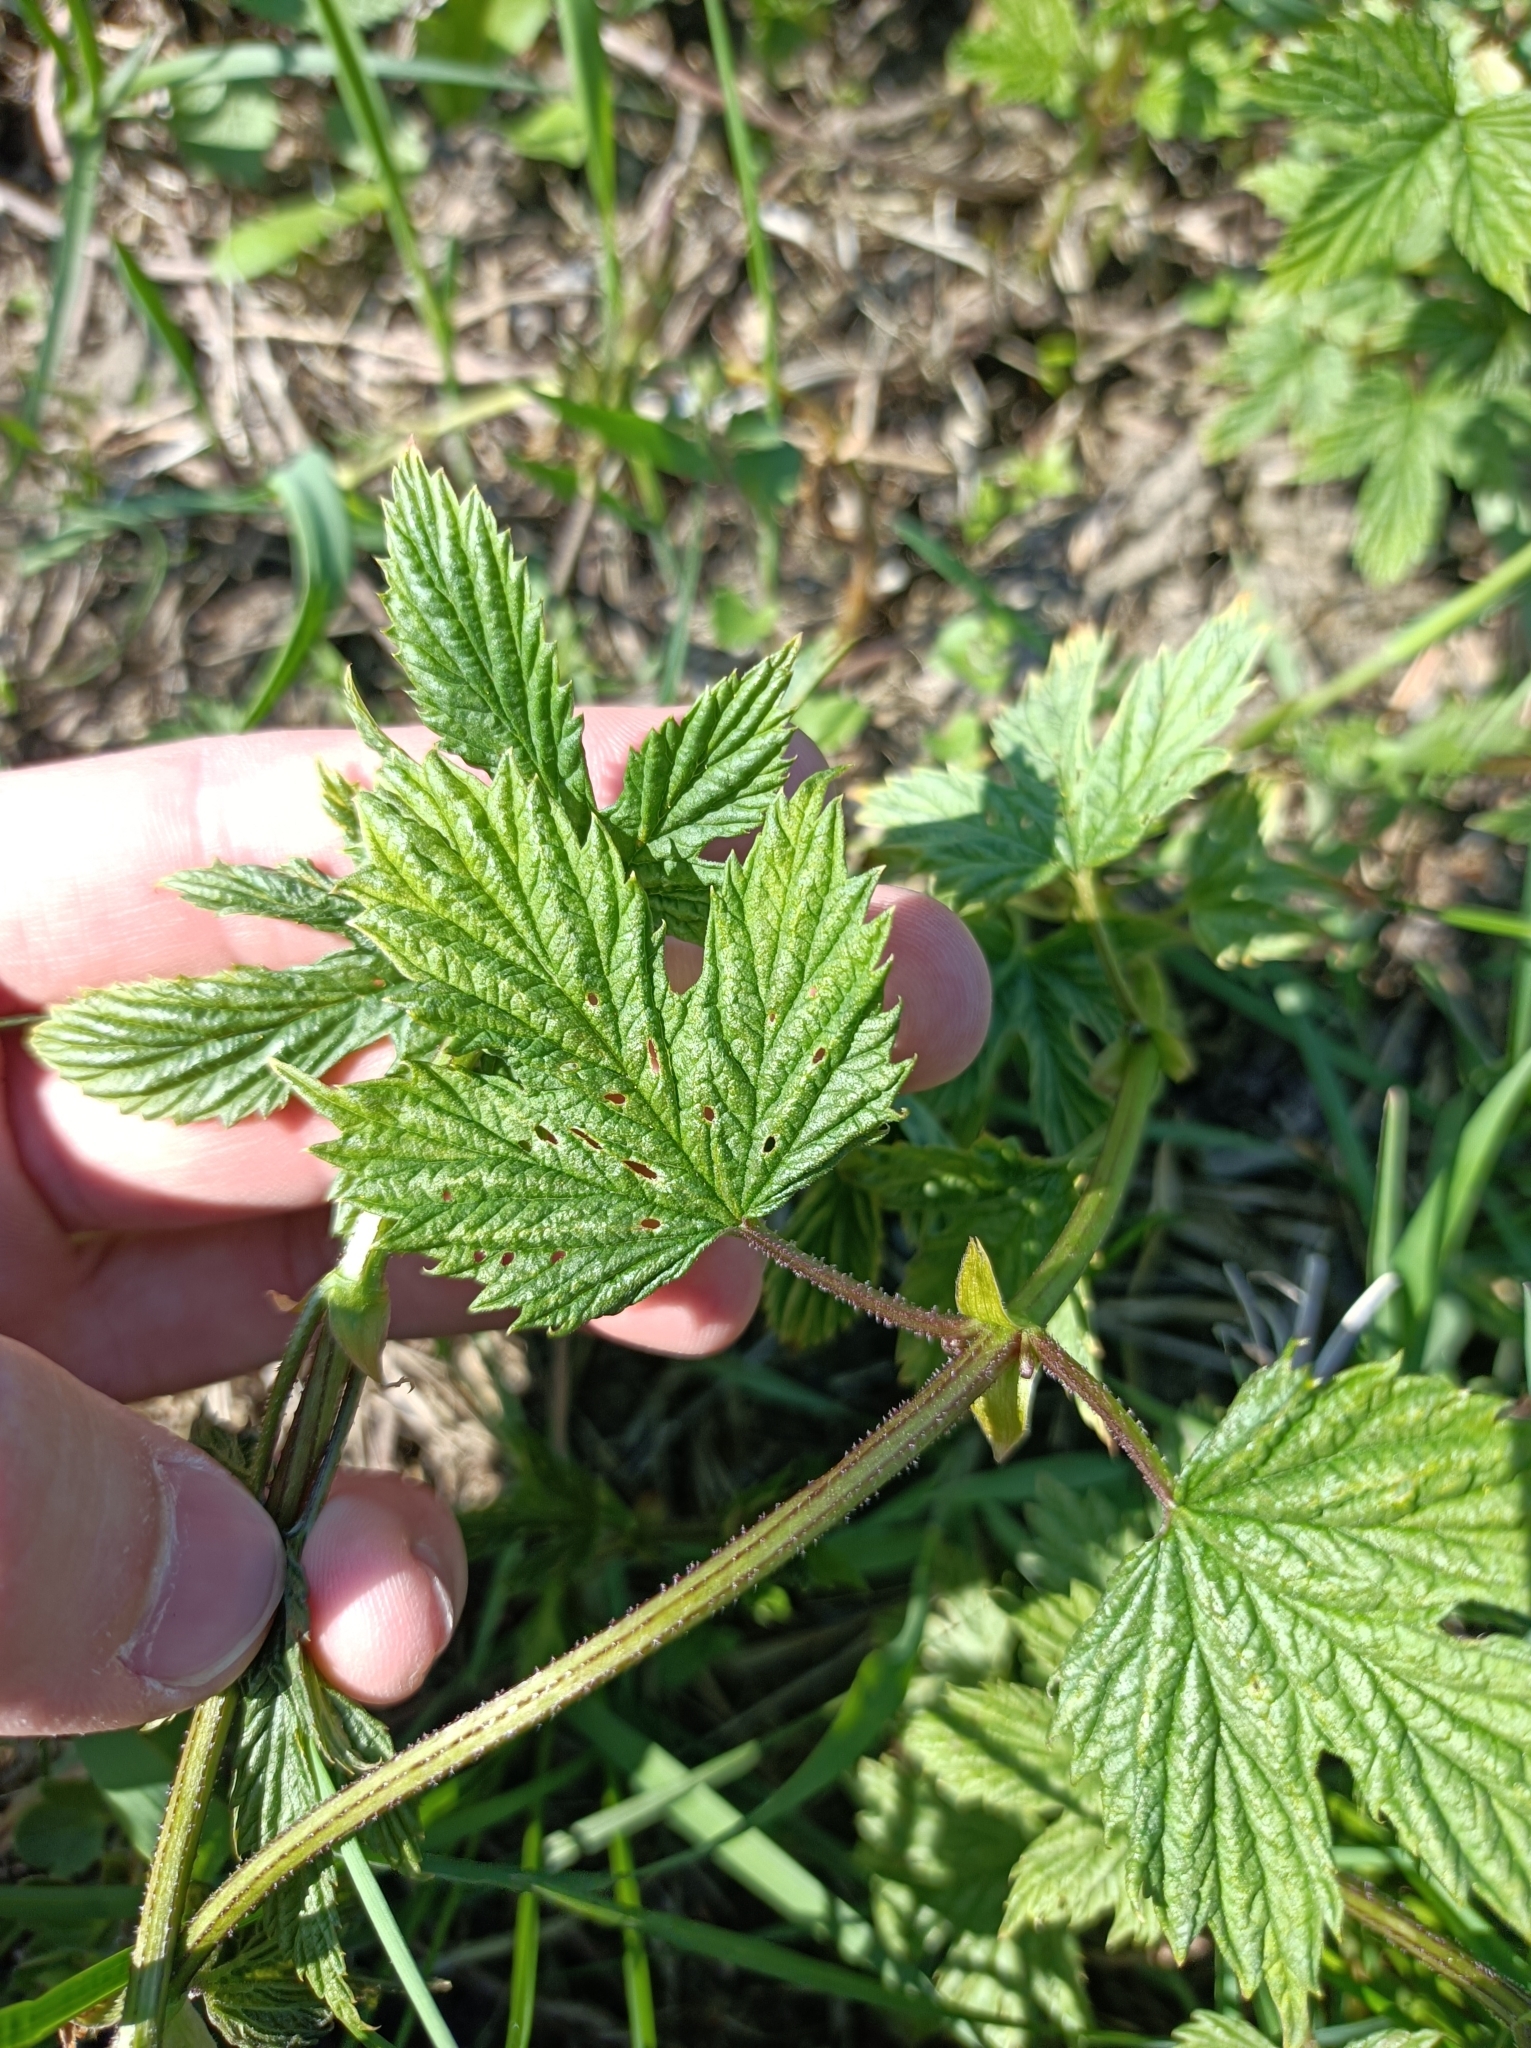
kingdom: Plantae
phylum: Tracheophyta
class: Magnoliopsida
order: Rosales
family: Cannabaceae
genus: Humulus
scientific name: Humulus lupulus
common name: Hop
